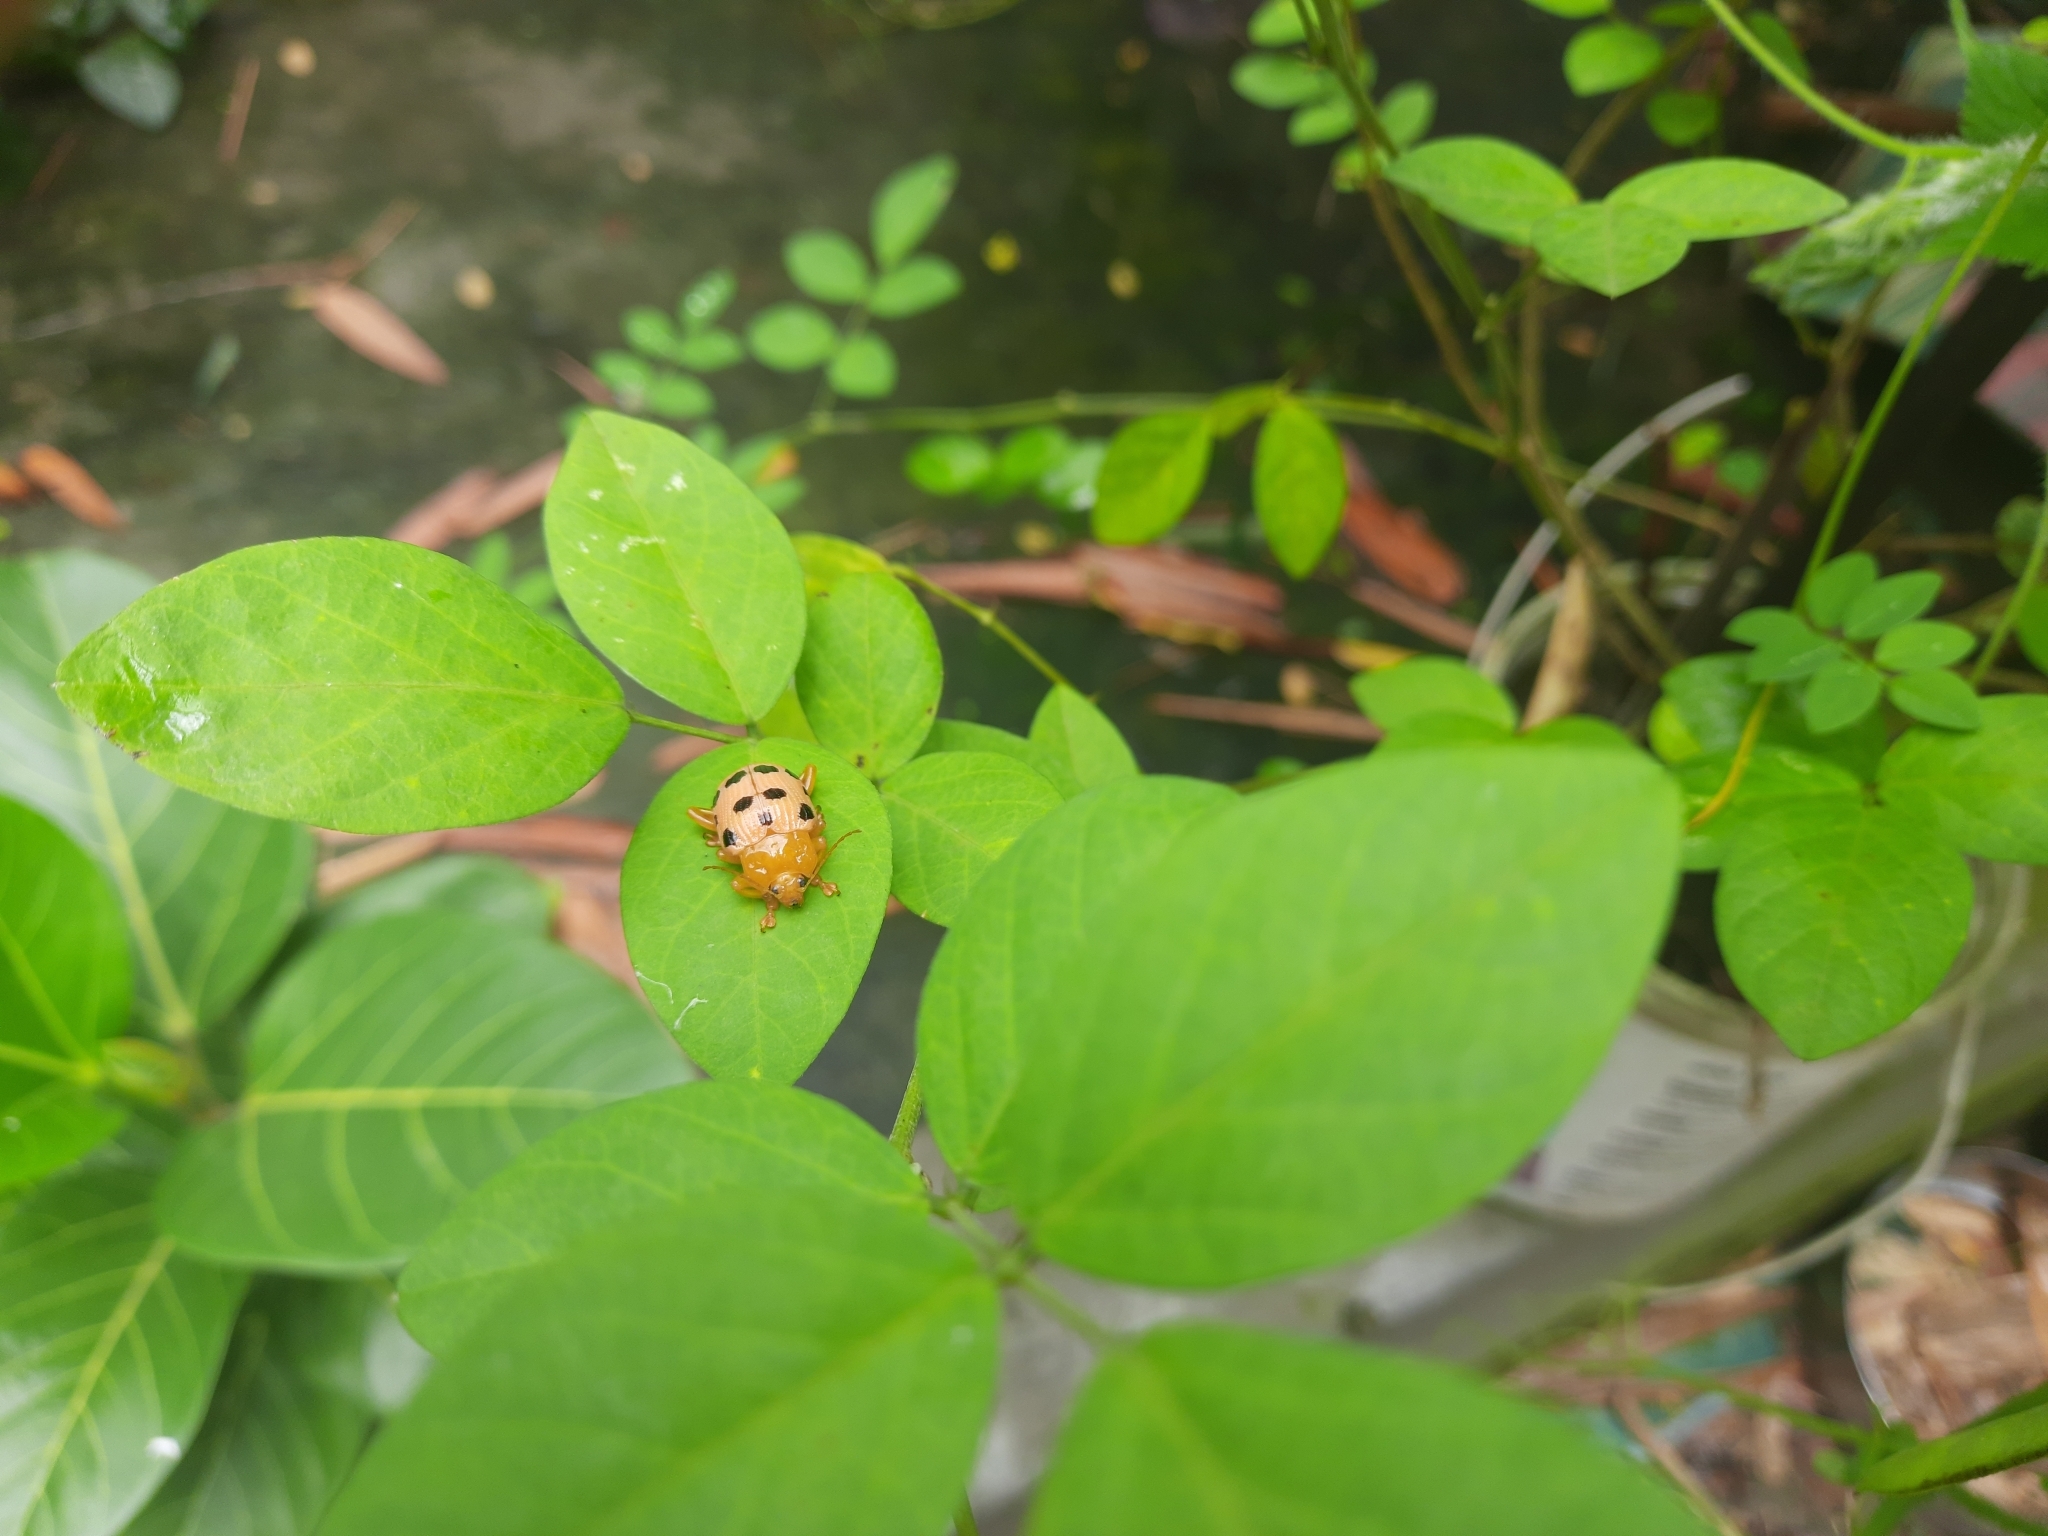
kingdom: Animalia
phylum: Arthropoda
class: Insecta
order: Coleoptera
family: Chrysomelidae
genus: Podontia
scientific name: Podontia
